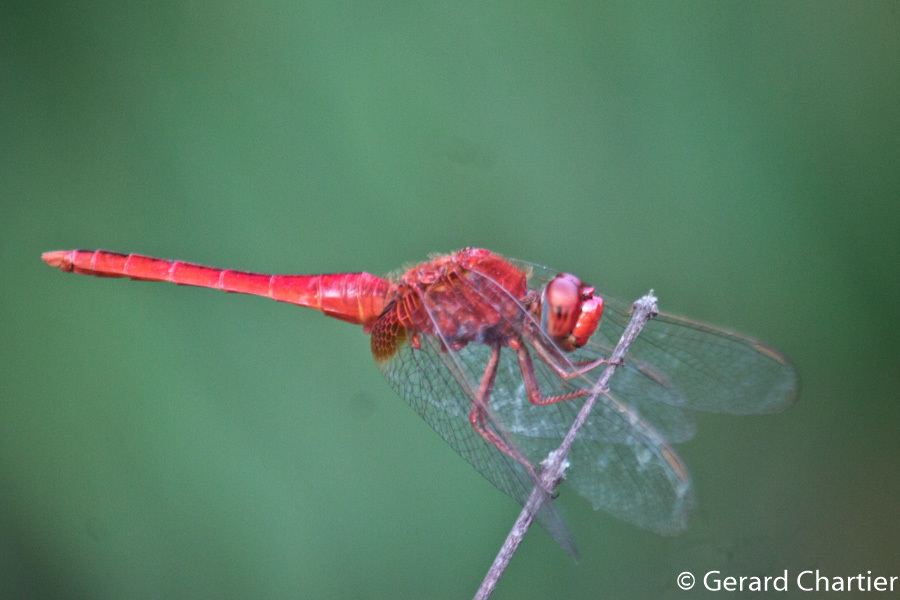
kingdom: Animalia
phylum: Arthropoda
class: Insecta
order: Odonata
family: Libellulidae
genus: Crocothemis
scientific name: Crocothemis servilia
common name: Scarlet skimmer
